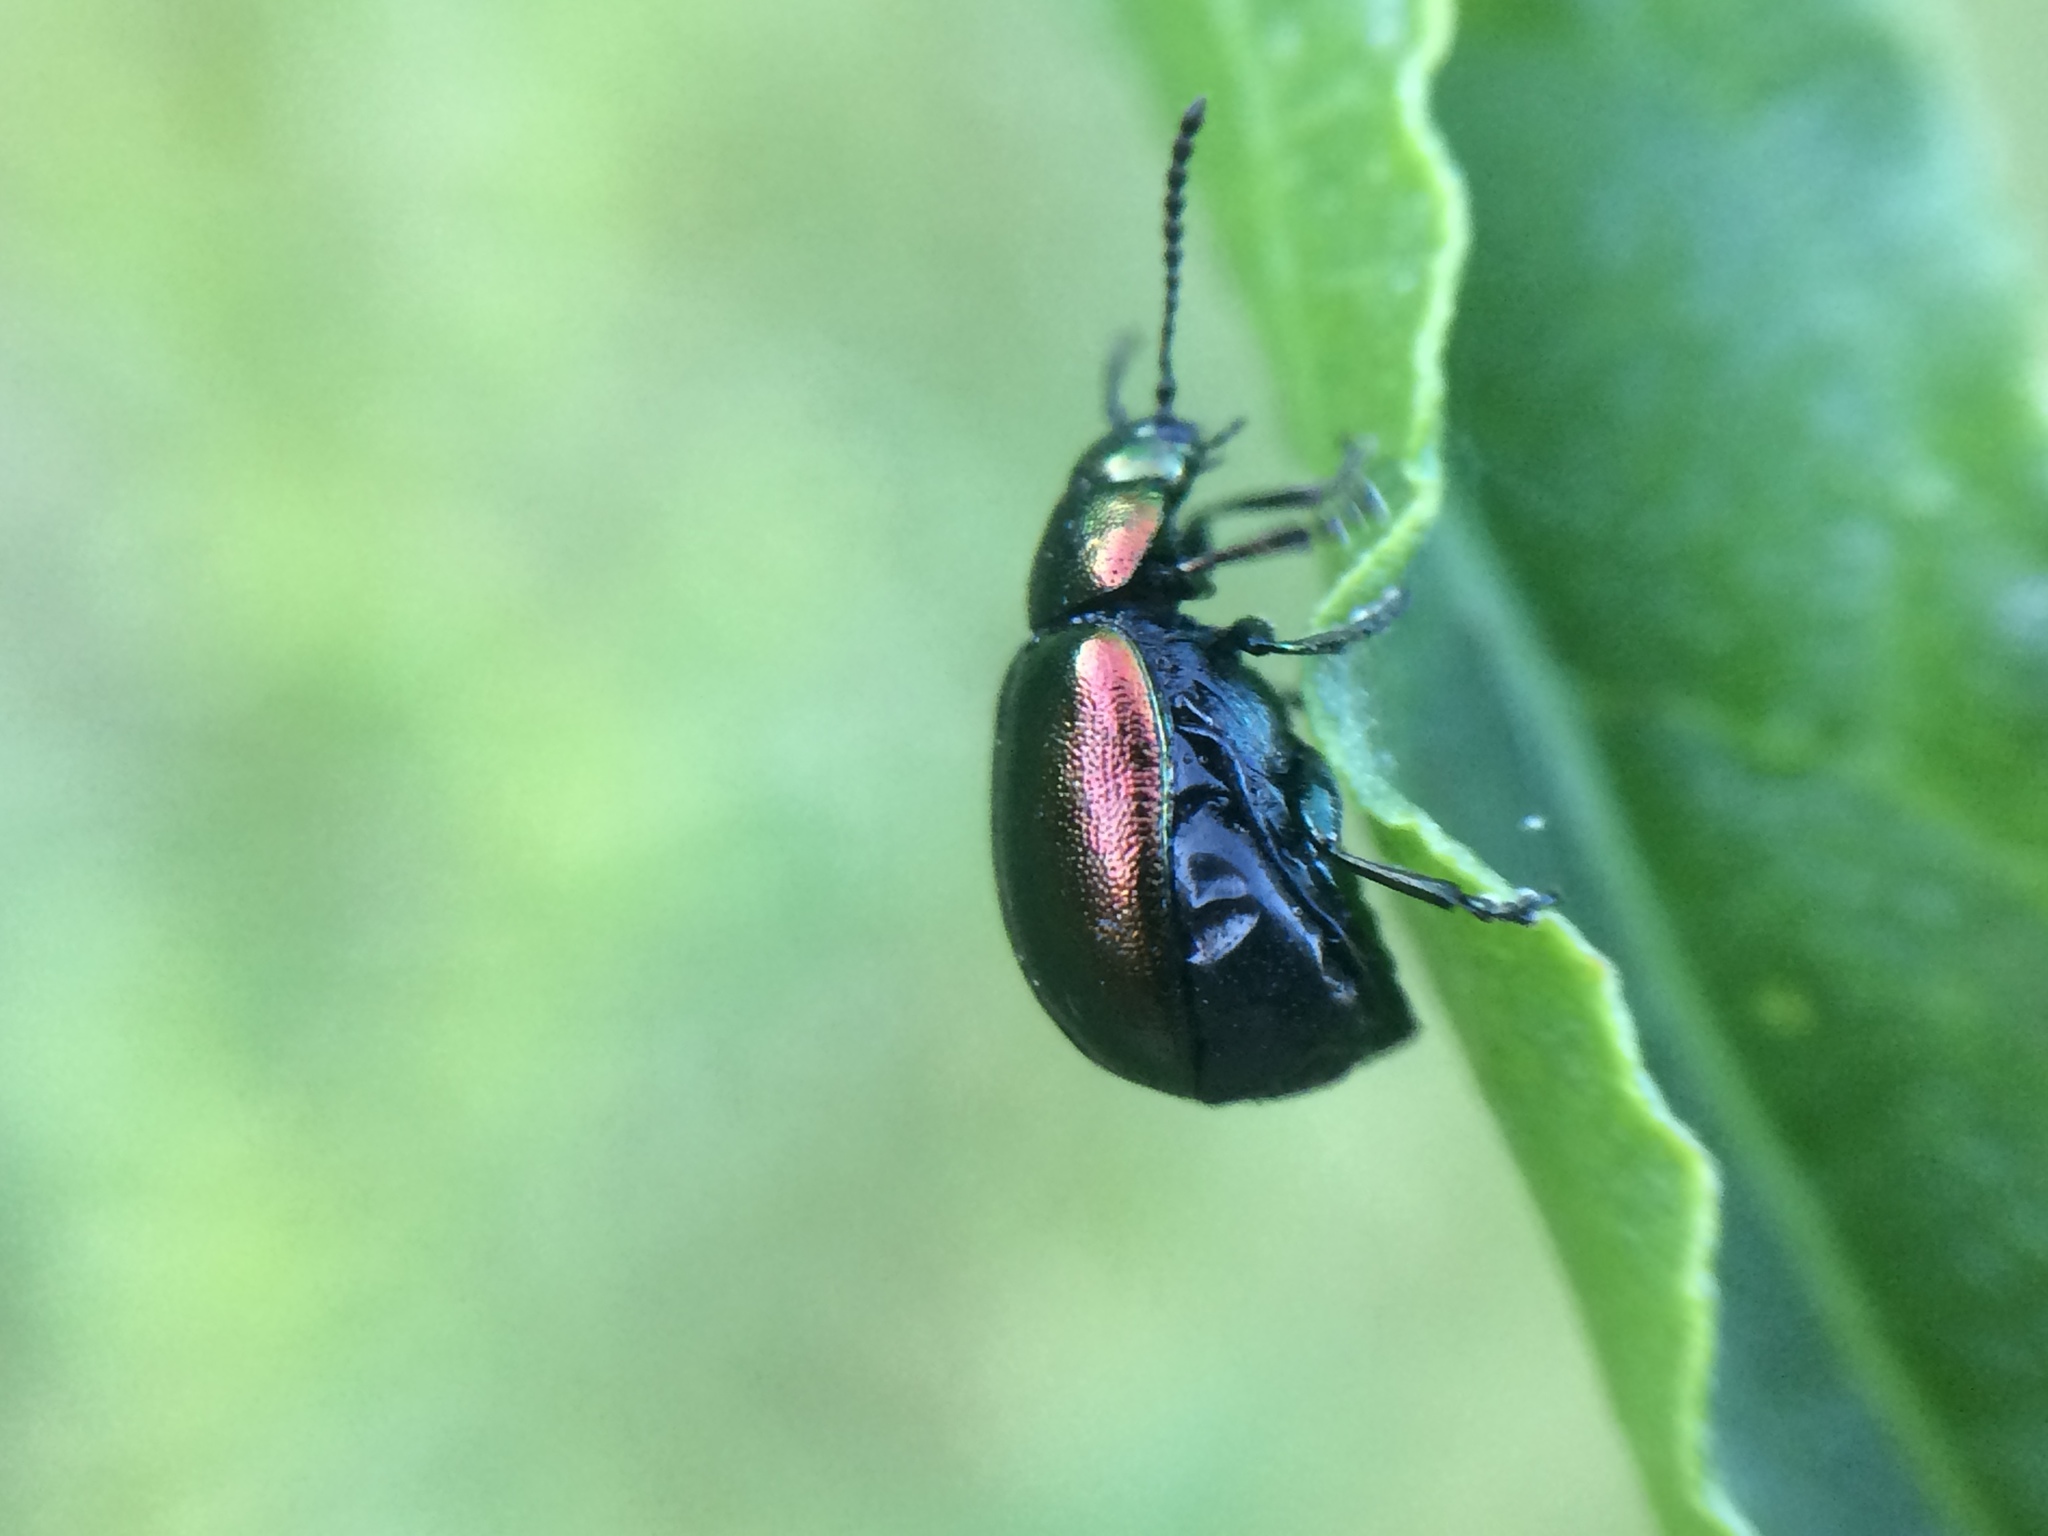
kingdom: Animalia
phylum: Arthropoda
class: Insecta
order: Coleoptera
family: Chrysomelidae
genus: Gastrophysa
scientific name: Gastrophysa cyanea
